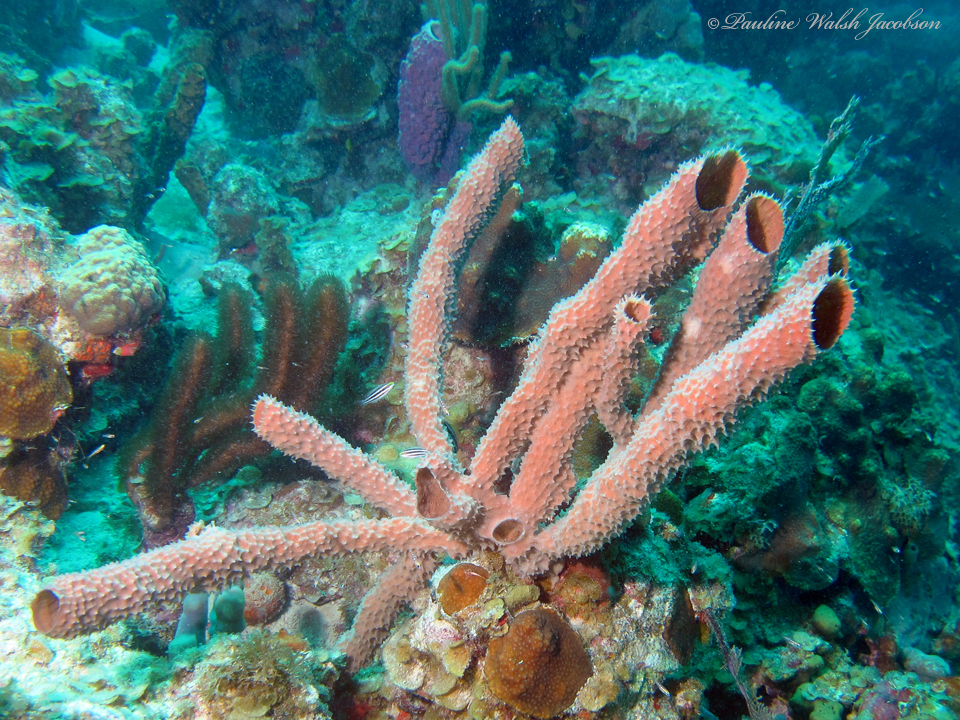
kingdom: Animalia
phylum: Porifera
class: Demospongiae
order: Haplosclerida
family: Callyspongiidae
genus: Callyspongia
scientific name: Callyspongia aculeata
